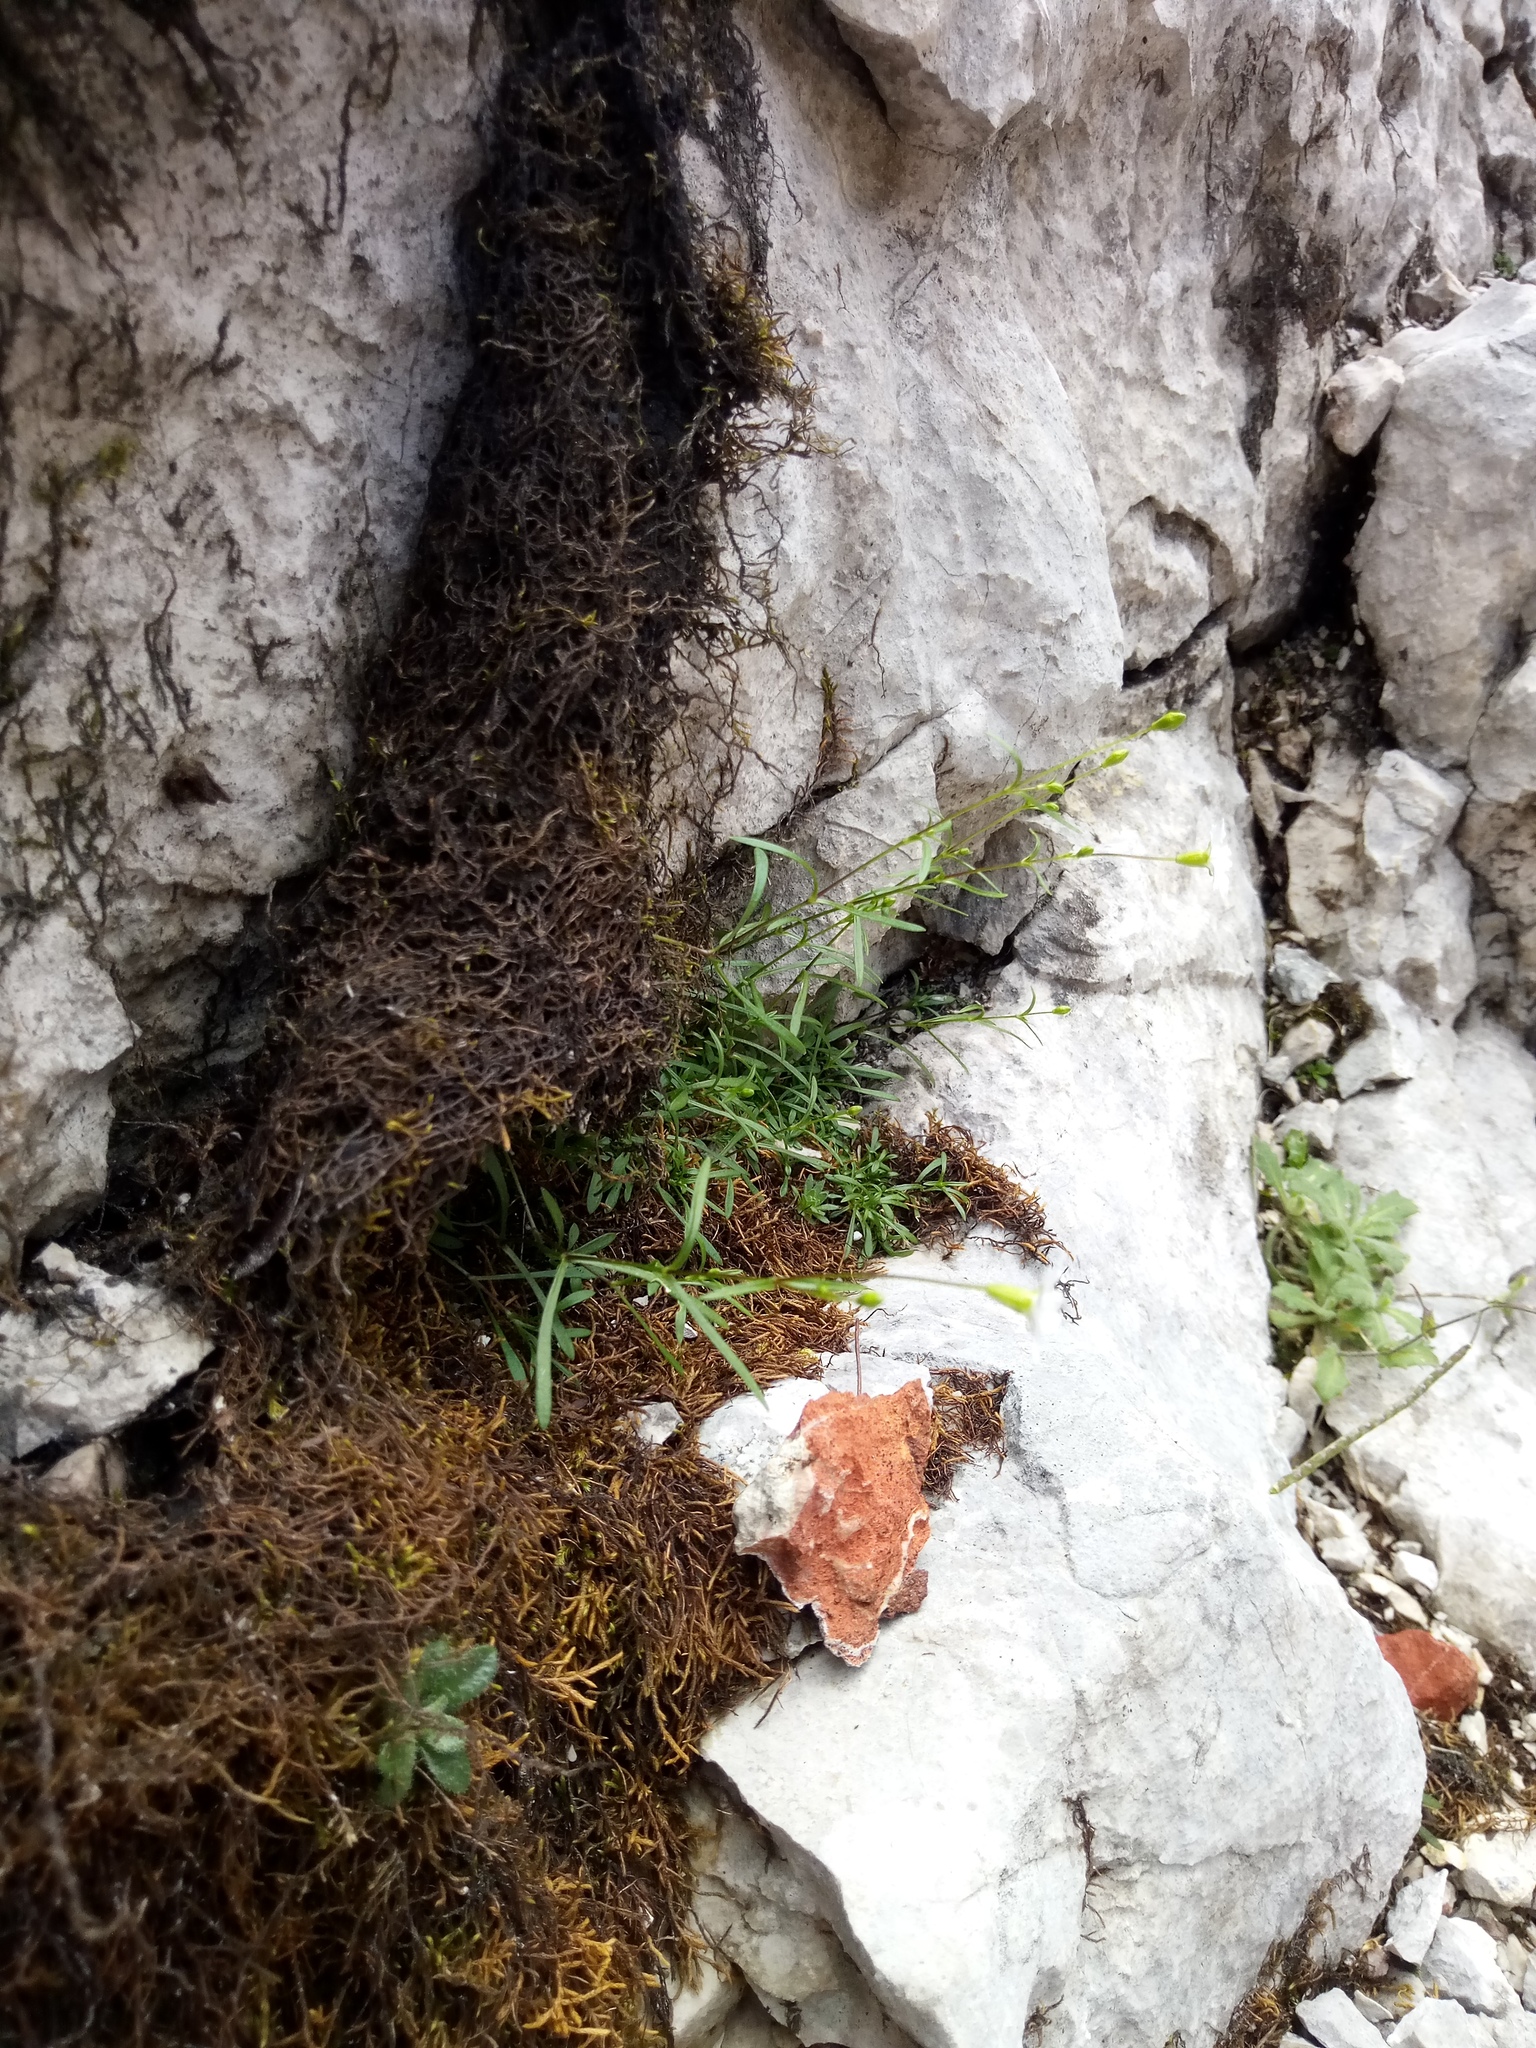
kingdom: Plantae
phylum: Tracheophyta
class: Magnoliopsida
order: Caryophyllales
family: Caryophyllaceae
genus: Heliosperma
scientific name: Heliosperma pusillum
